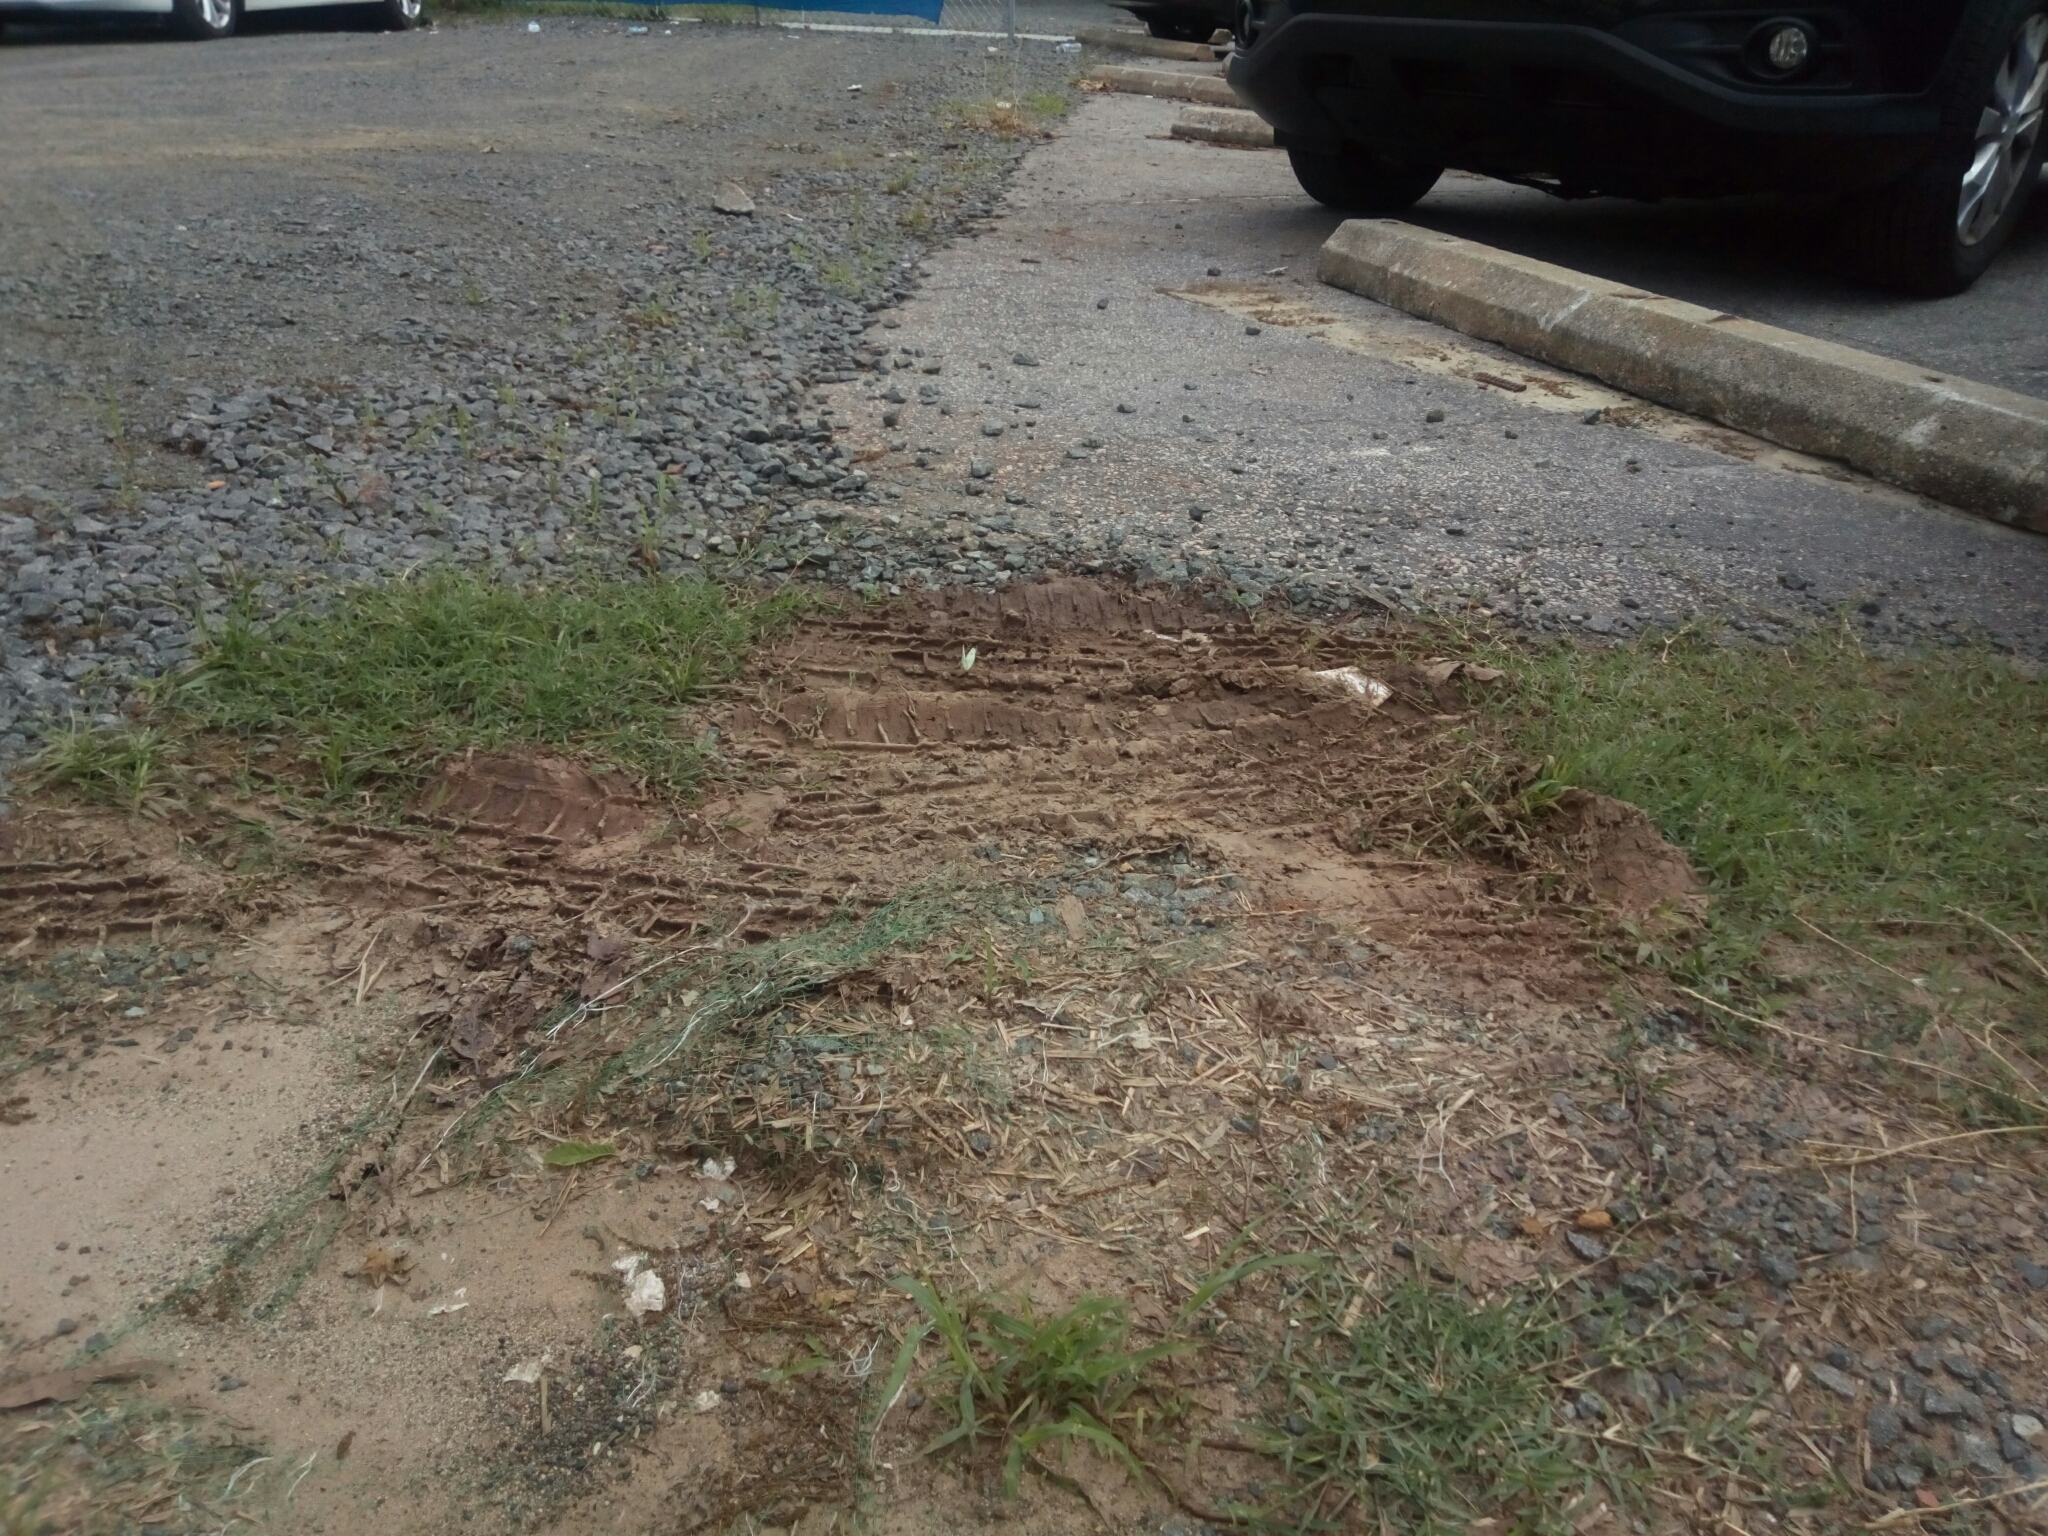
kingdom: Animalia
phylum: Arthropoda
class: Insecta
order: Lepidoptera
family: Pieridae
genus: Pieris
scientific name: Pieris rapae
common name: Small white
